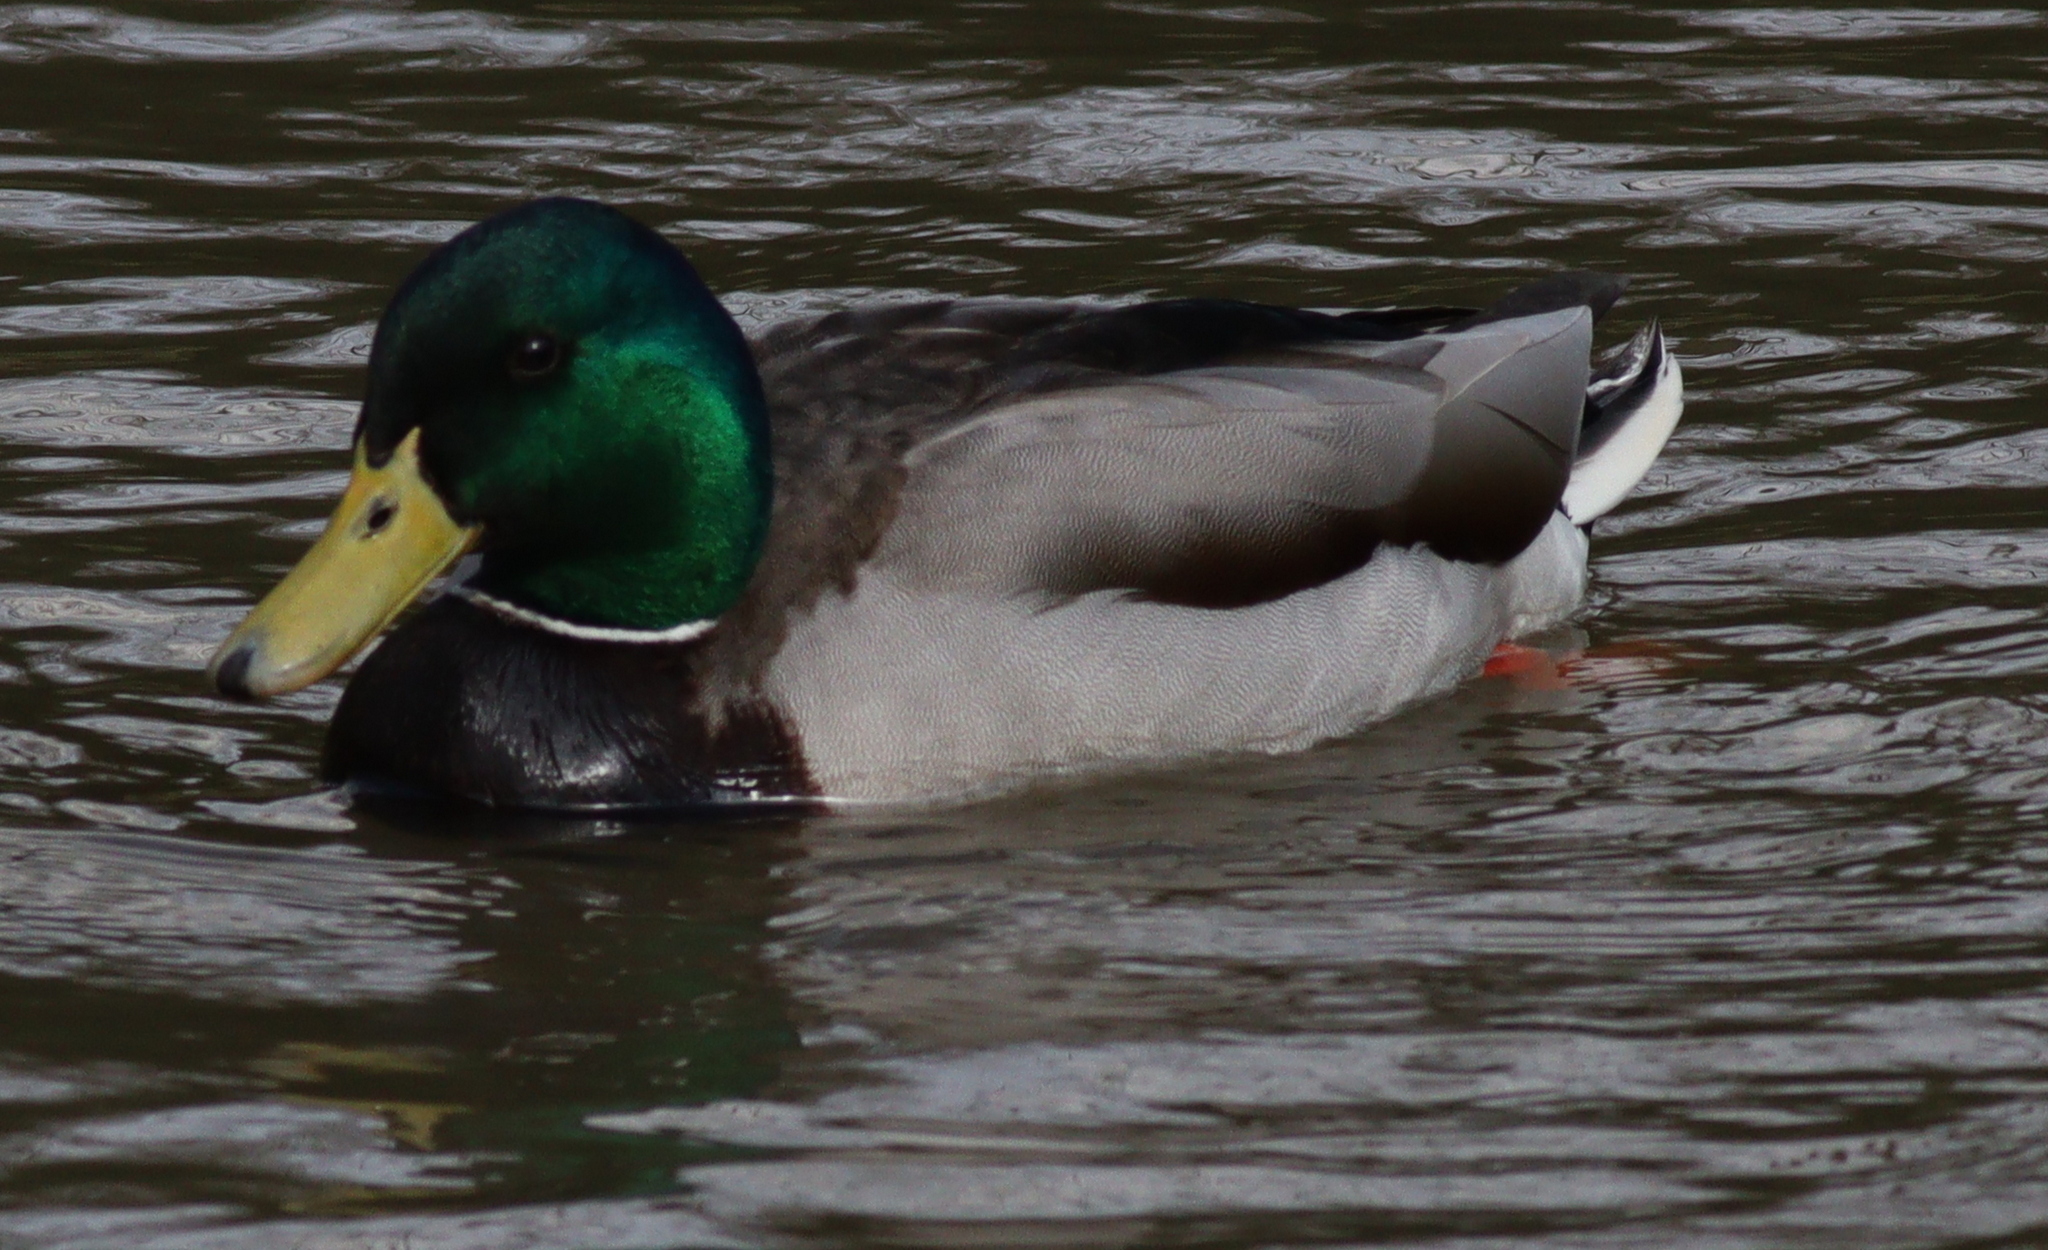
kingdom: Animalia
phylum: Chordata
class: Aves
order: Anseriformes
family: Anatidae
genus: Anas
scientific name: Anas platyrhynchos
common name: Mallard
